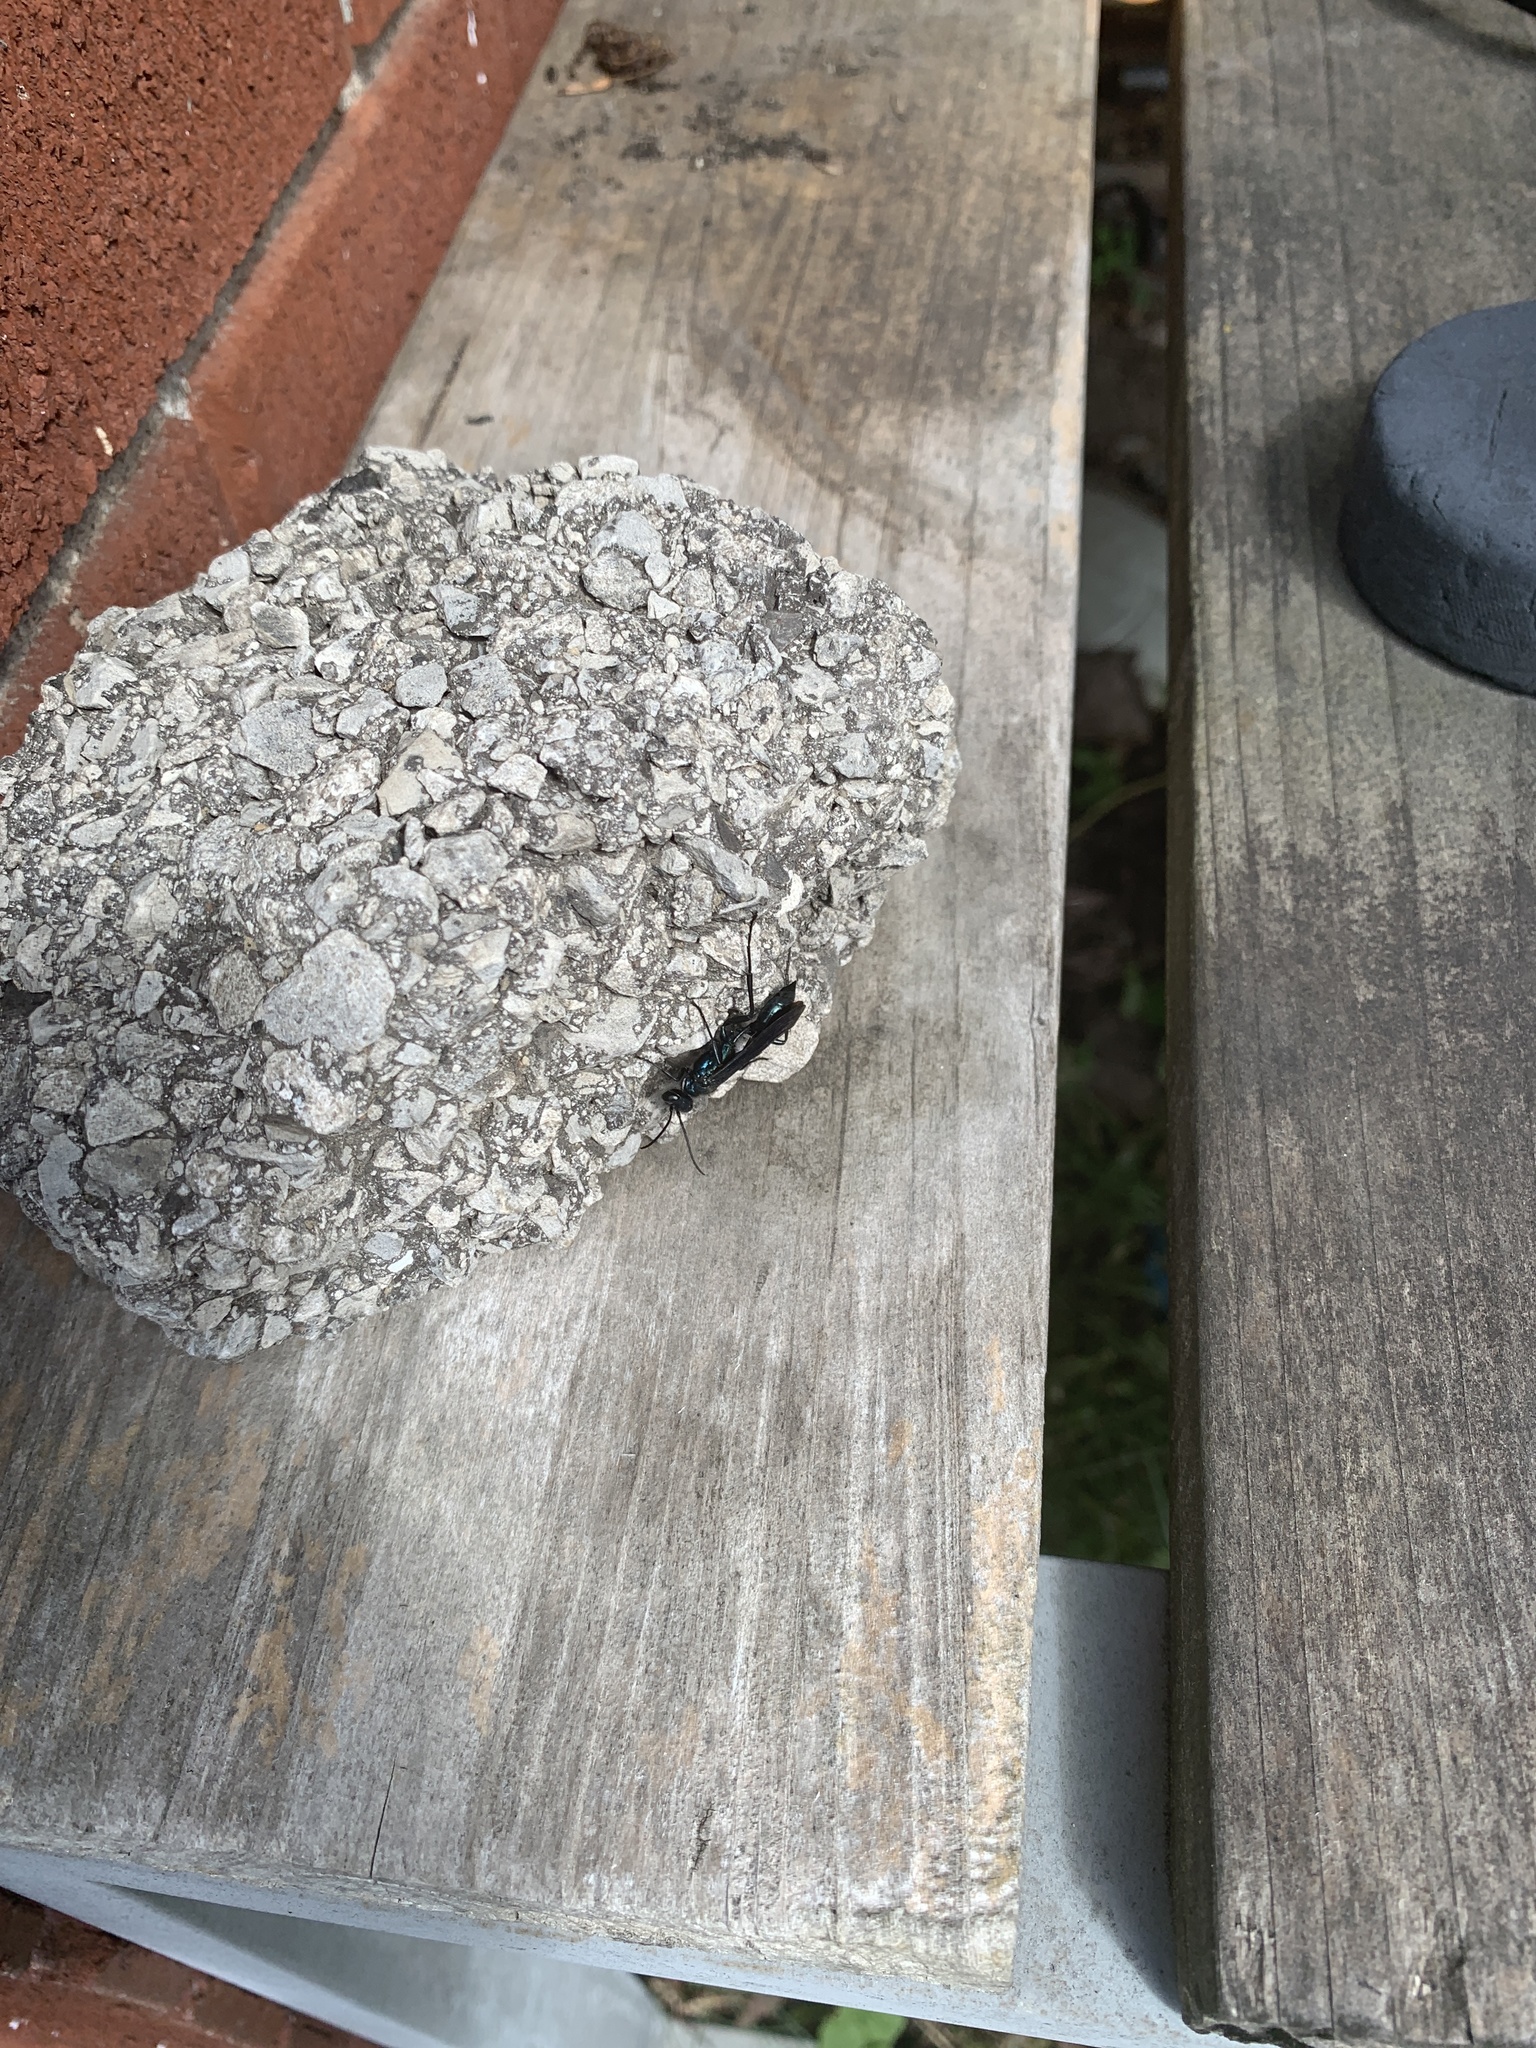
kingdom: Animalia
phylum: Arthropoda
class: Insecta
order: Hymenoptera
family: Sphecidae
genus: Chalybion
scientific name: Chalybion californicum
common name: Mud dauber
